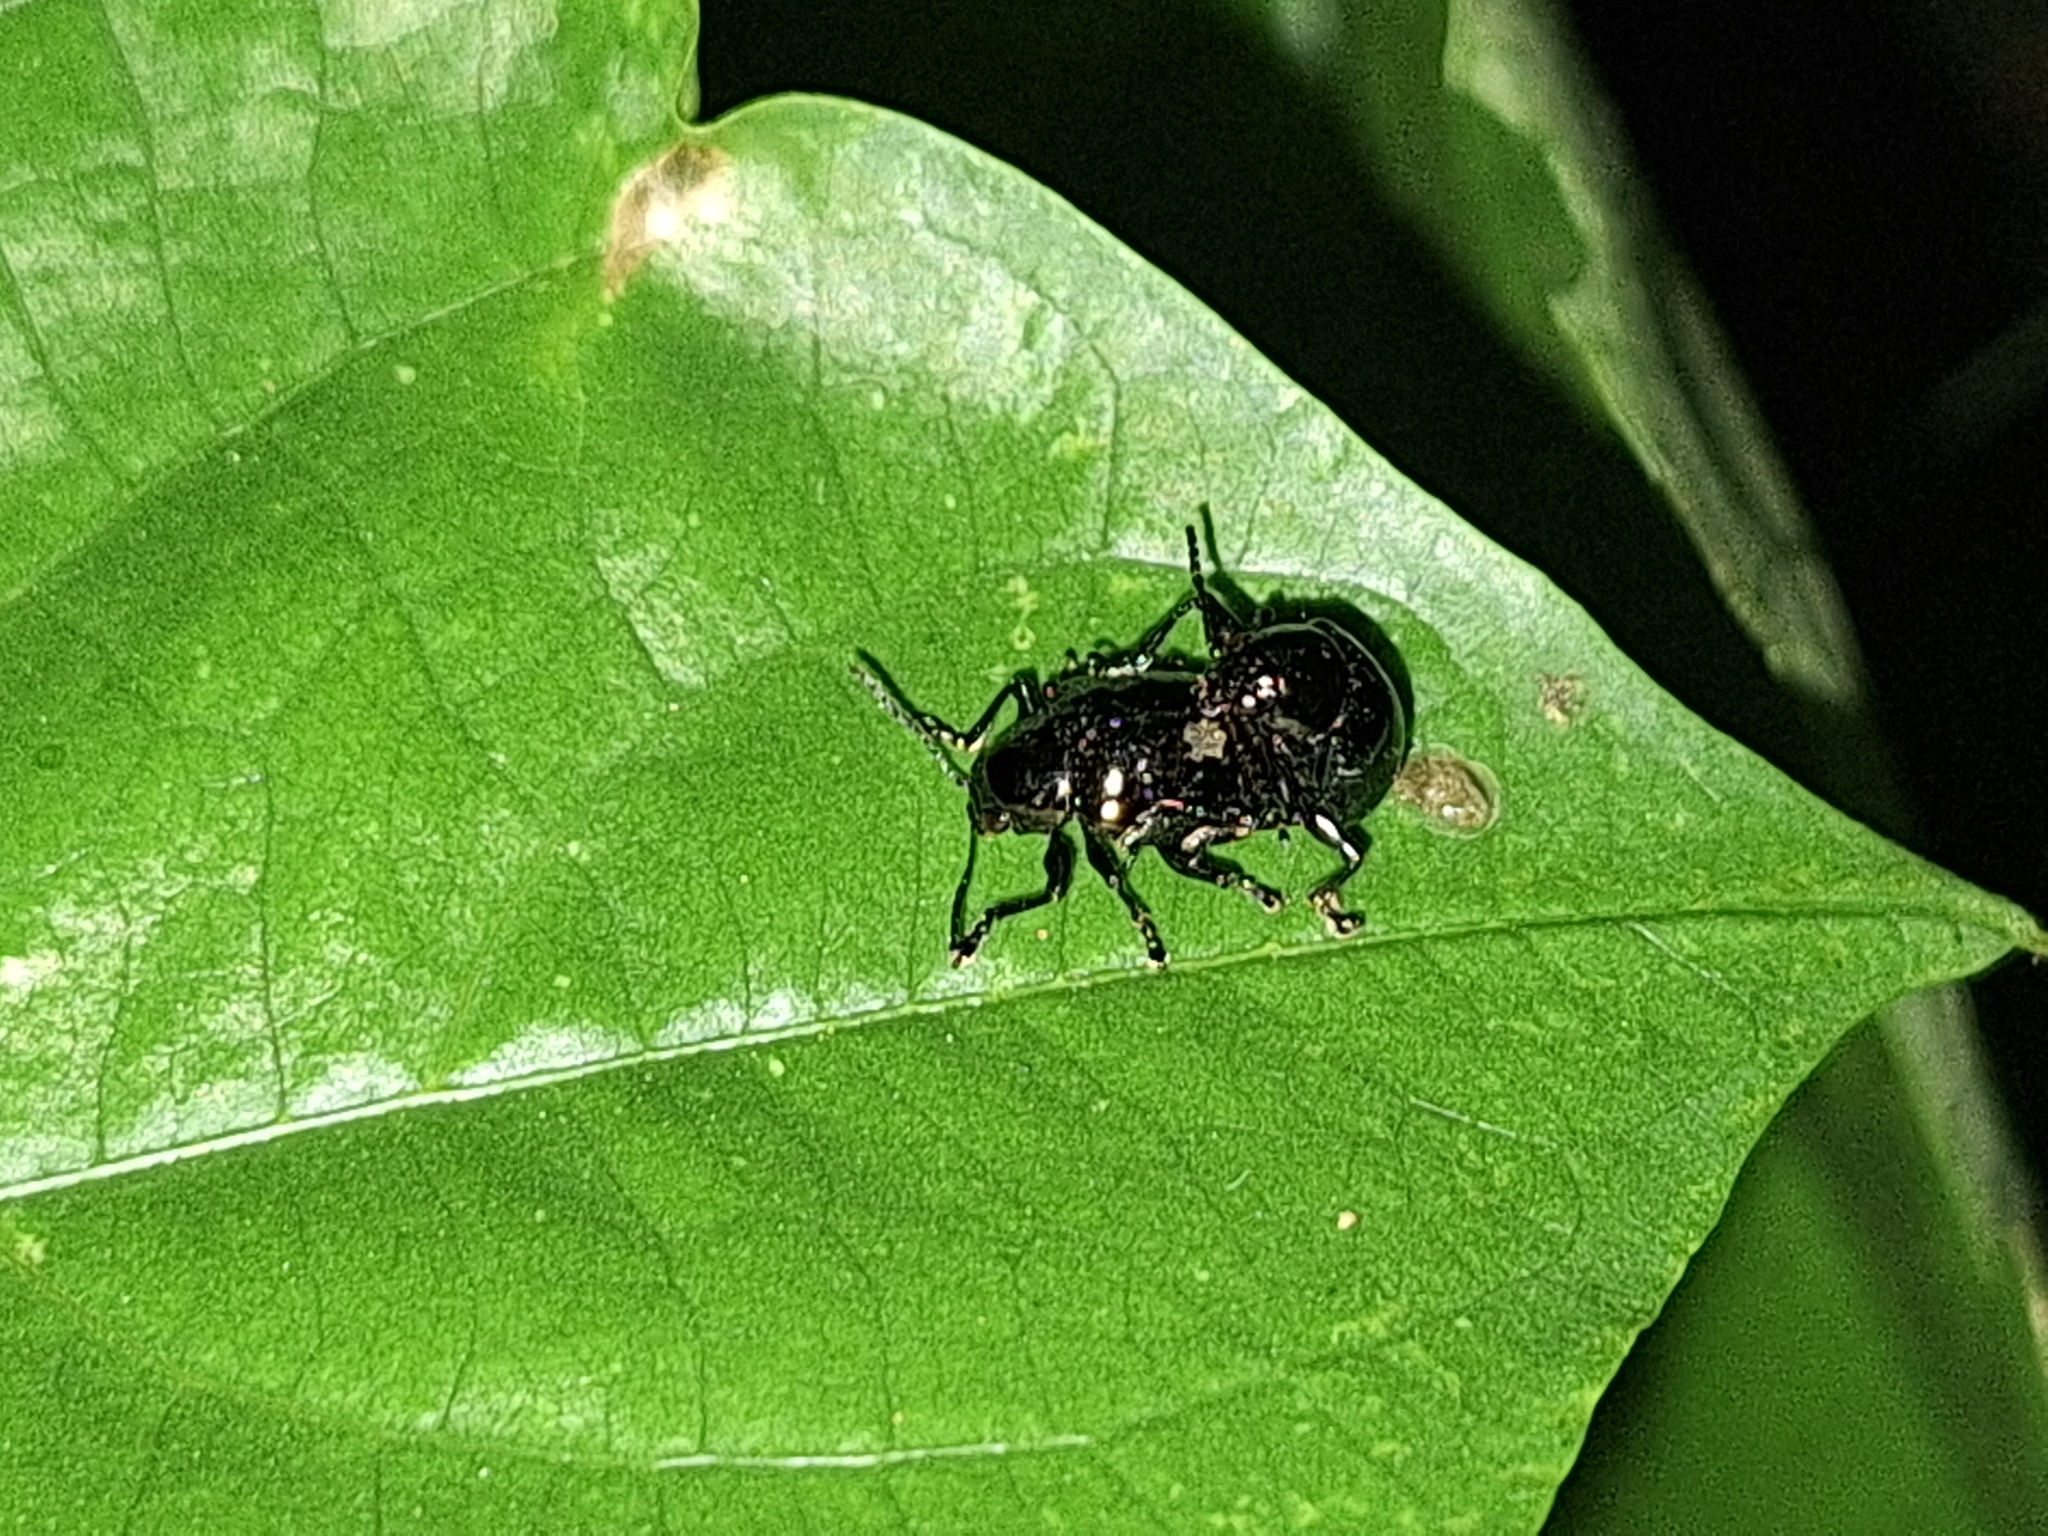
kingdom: Animalia
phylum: Arthropoda
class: Insecta
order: Coleoptera
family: Chrysomelidae
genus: Typophorus
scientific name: Typophorus nigritus
